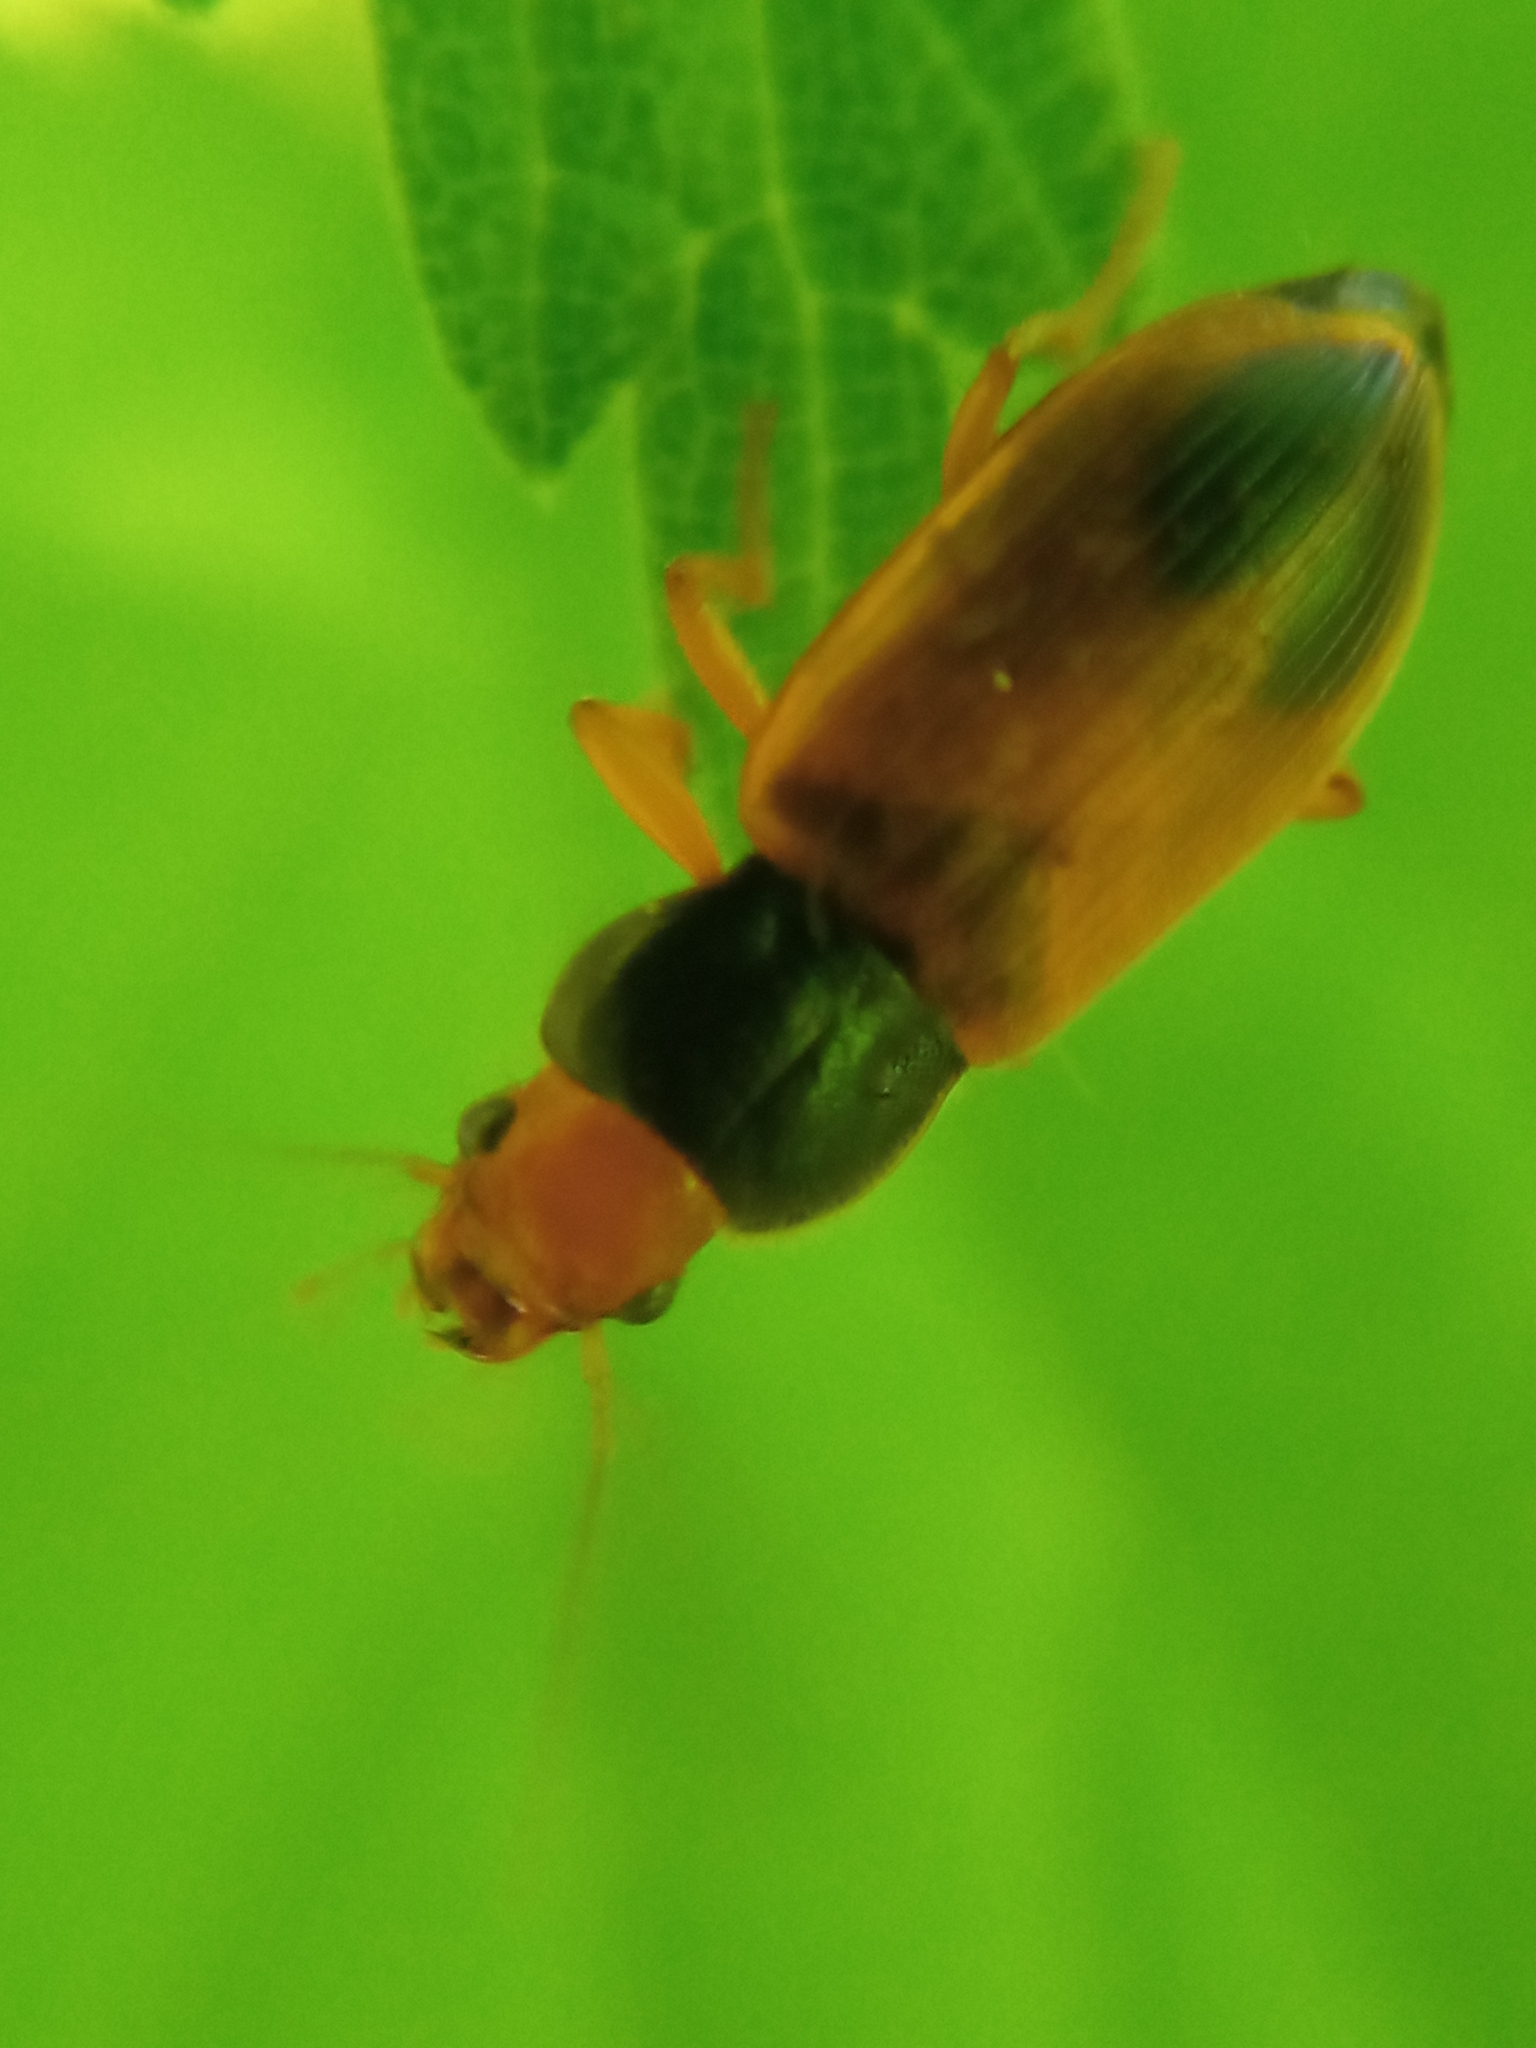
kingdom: Animalia
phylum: Arthropoda
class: Insecta
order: Coleoptera
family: Carabidae
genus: Diachromus
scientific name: Diachromus germanus
